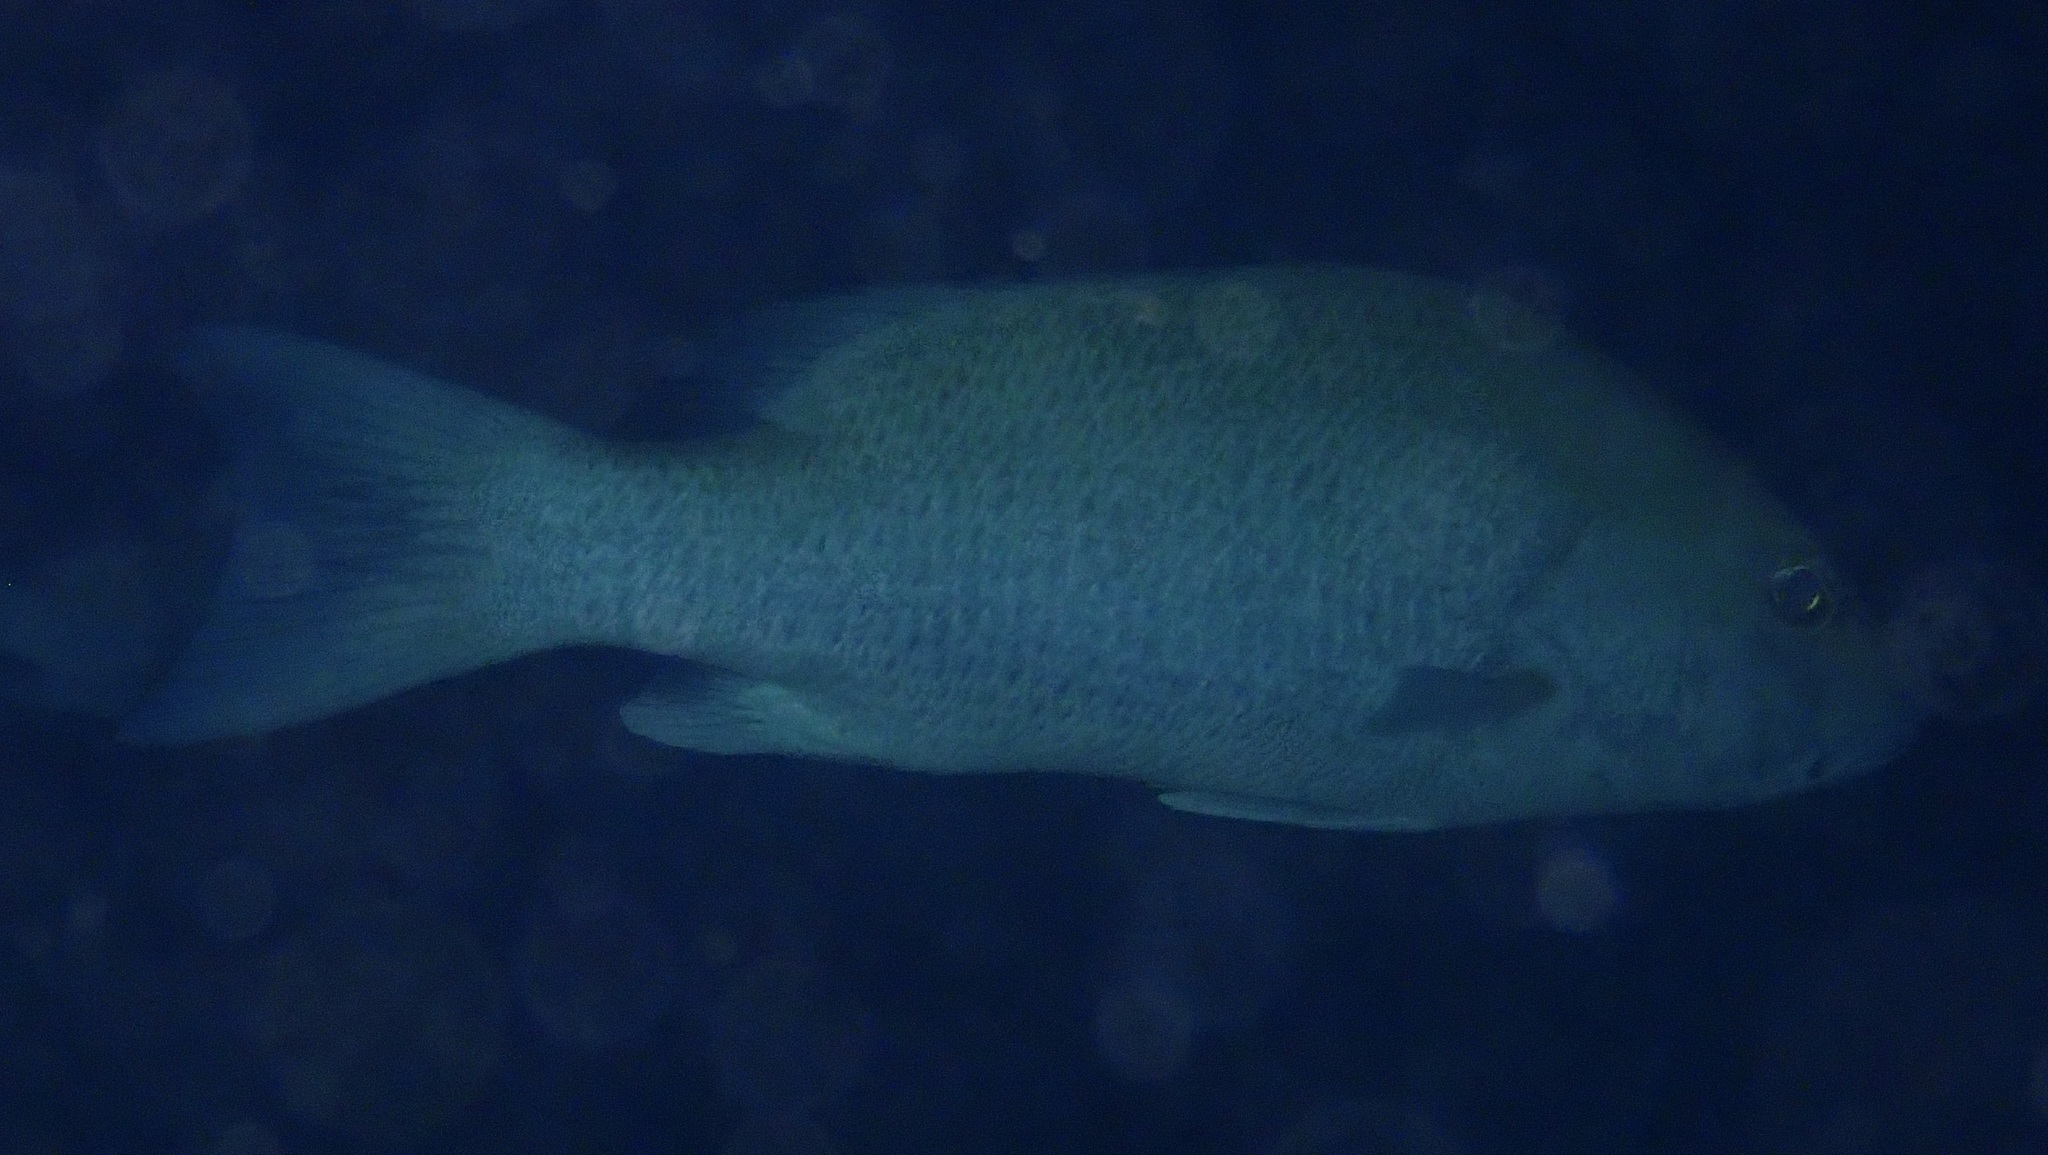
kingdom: Animalia
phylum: Chordata
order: Perciformes
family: Lutjanidae
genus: Lutjanus
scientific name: Lutjanus griseus
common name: Gray snapper
